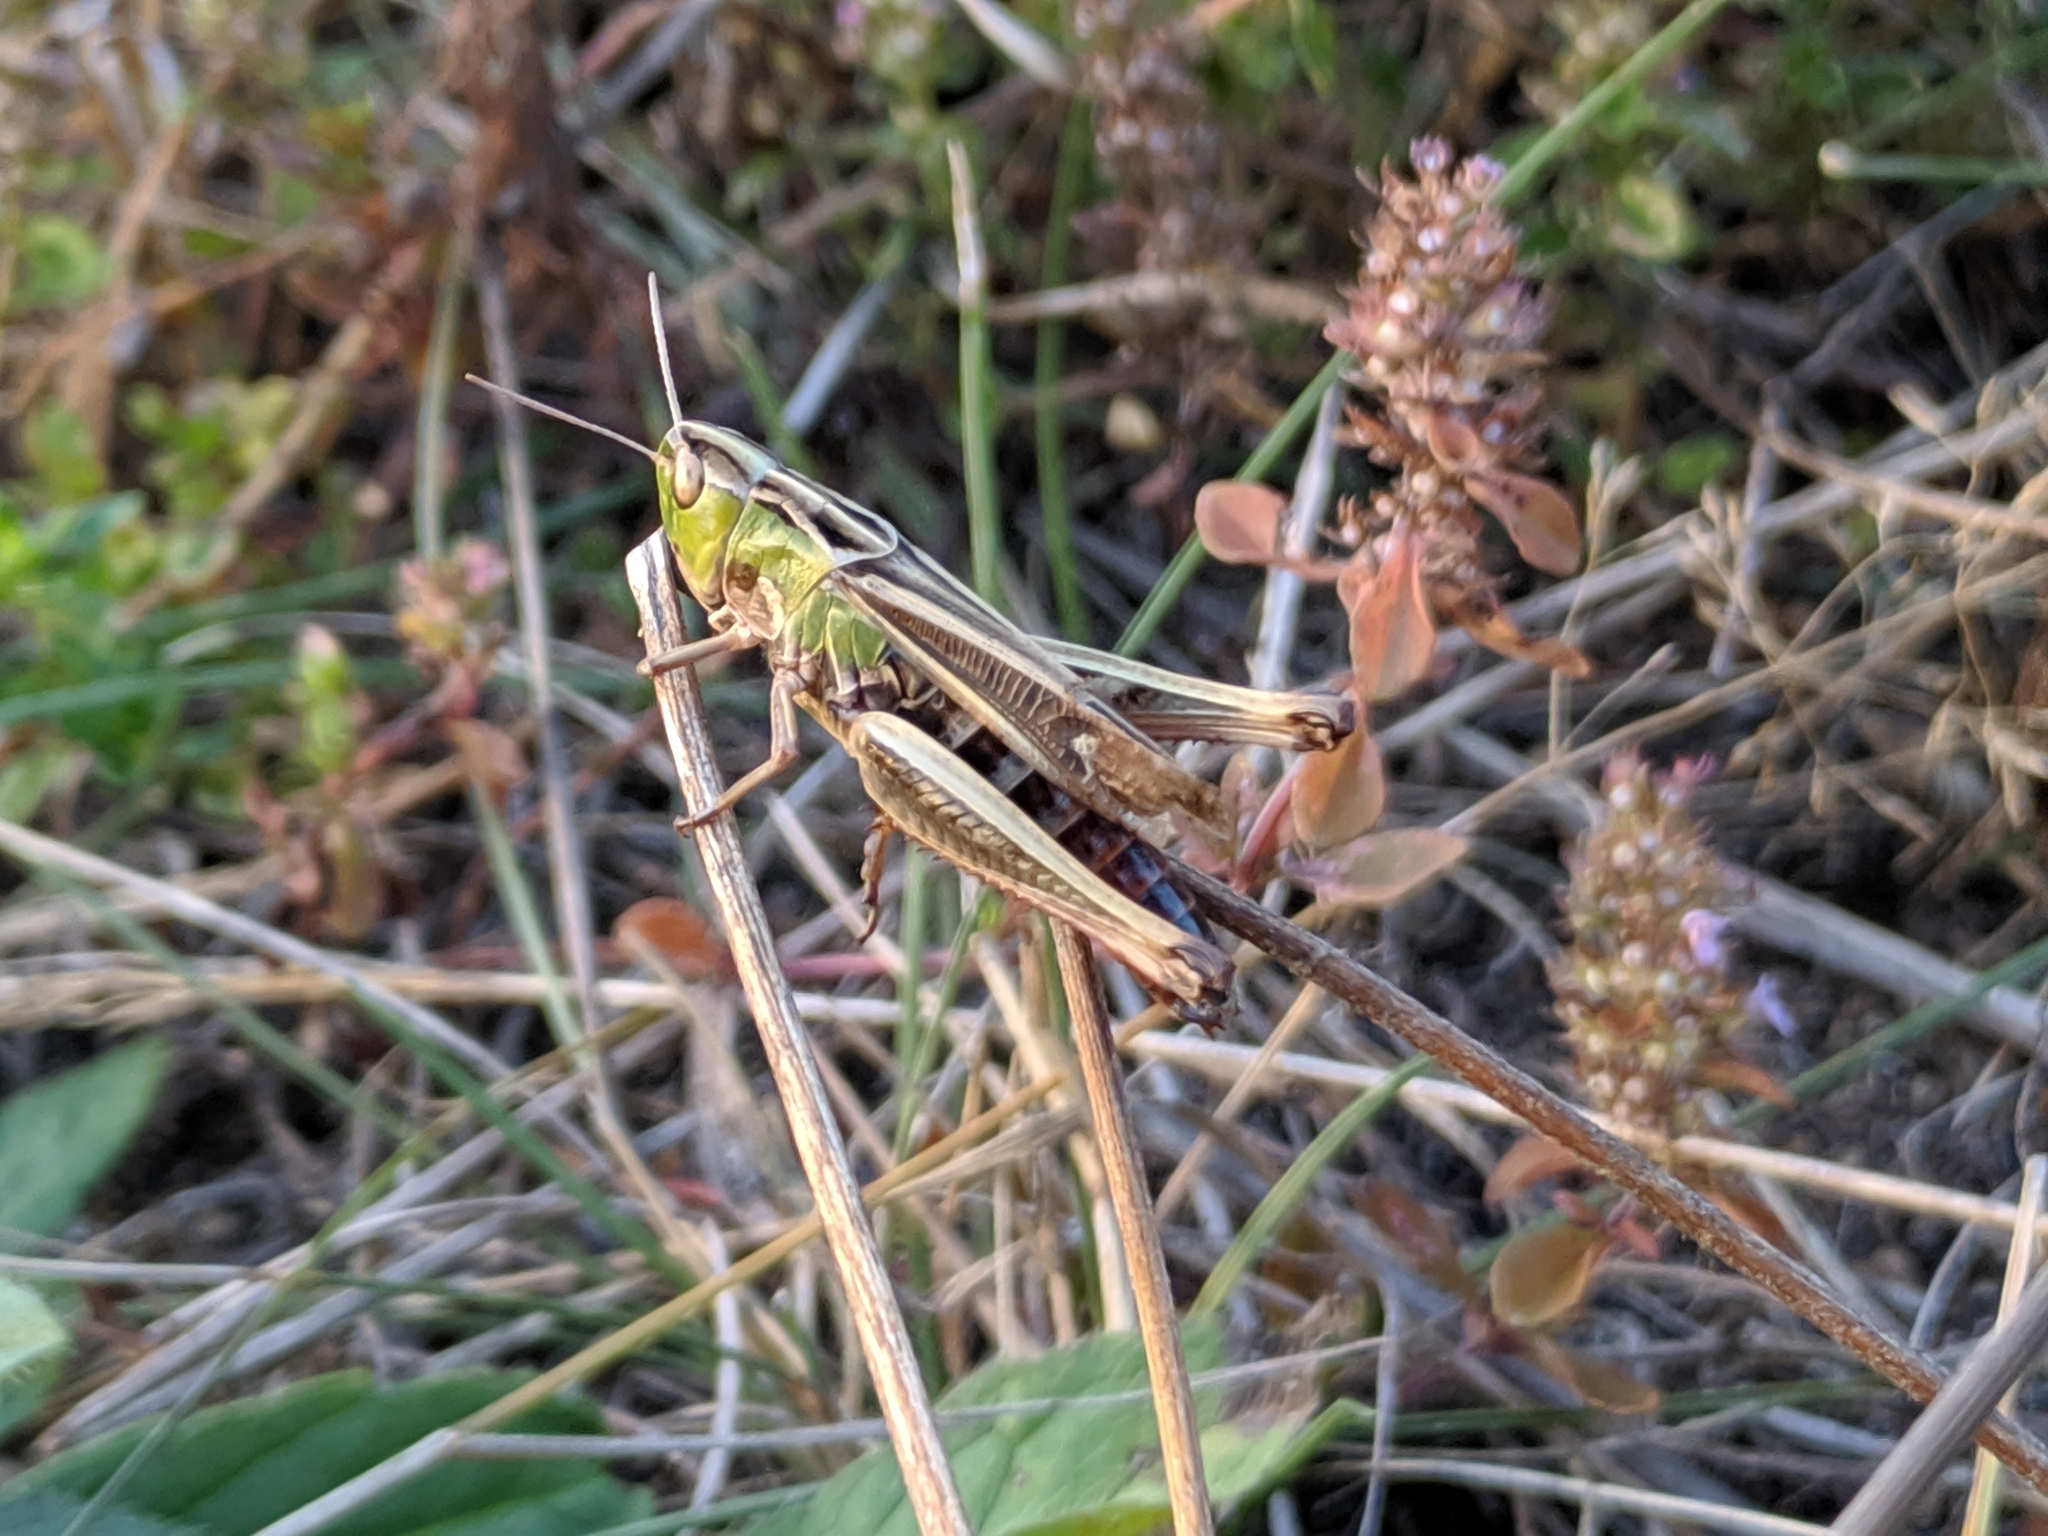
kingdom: Animalia
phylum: Arthropoda
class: Insecta
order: Orthoptera
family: Acrididae
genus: Stenobothrus
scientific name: Stenobothrus lineatus
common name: Stripe-winged grasshopper
